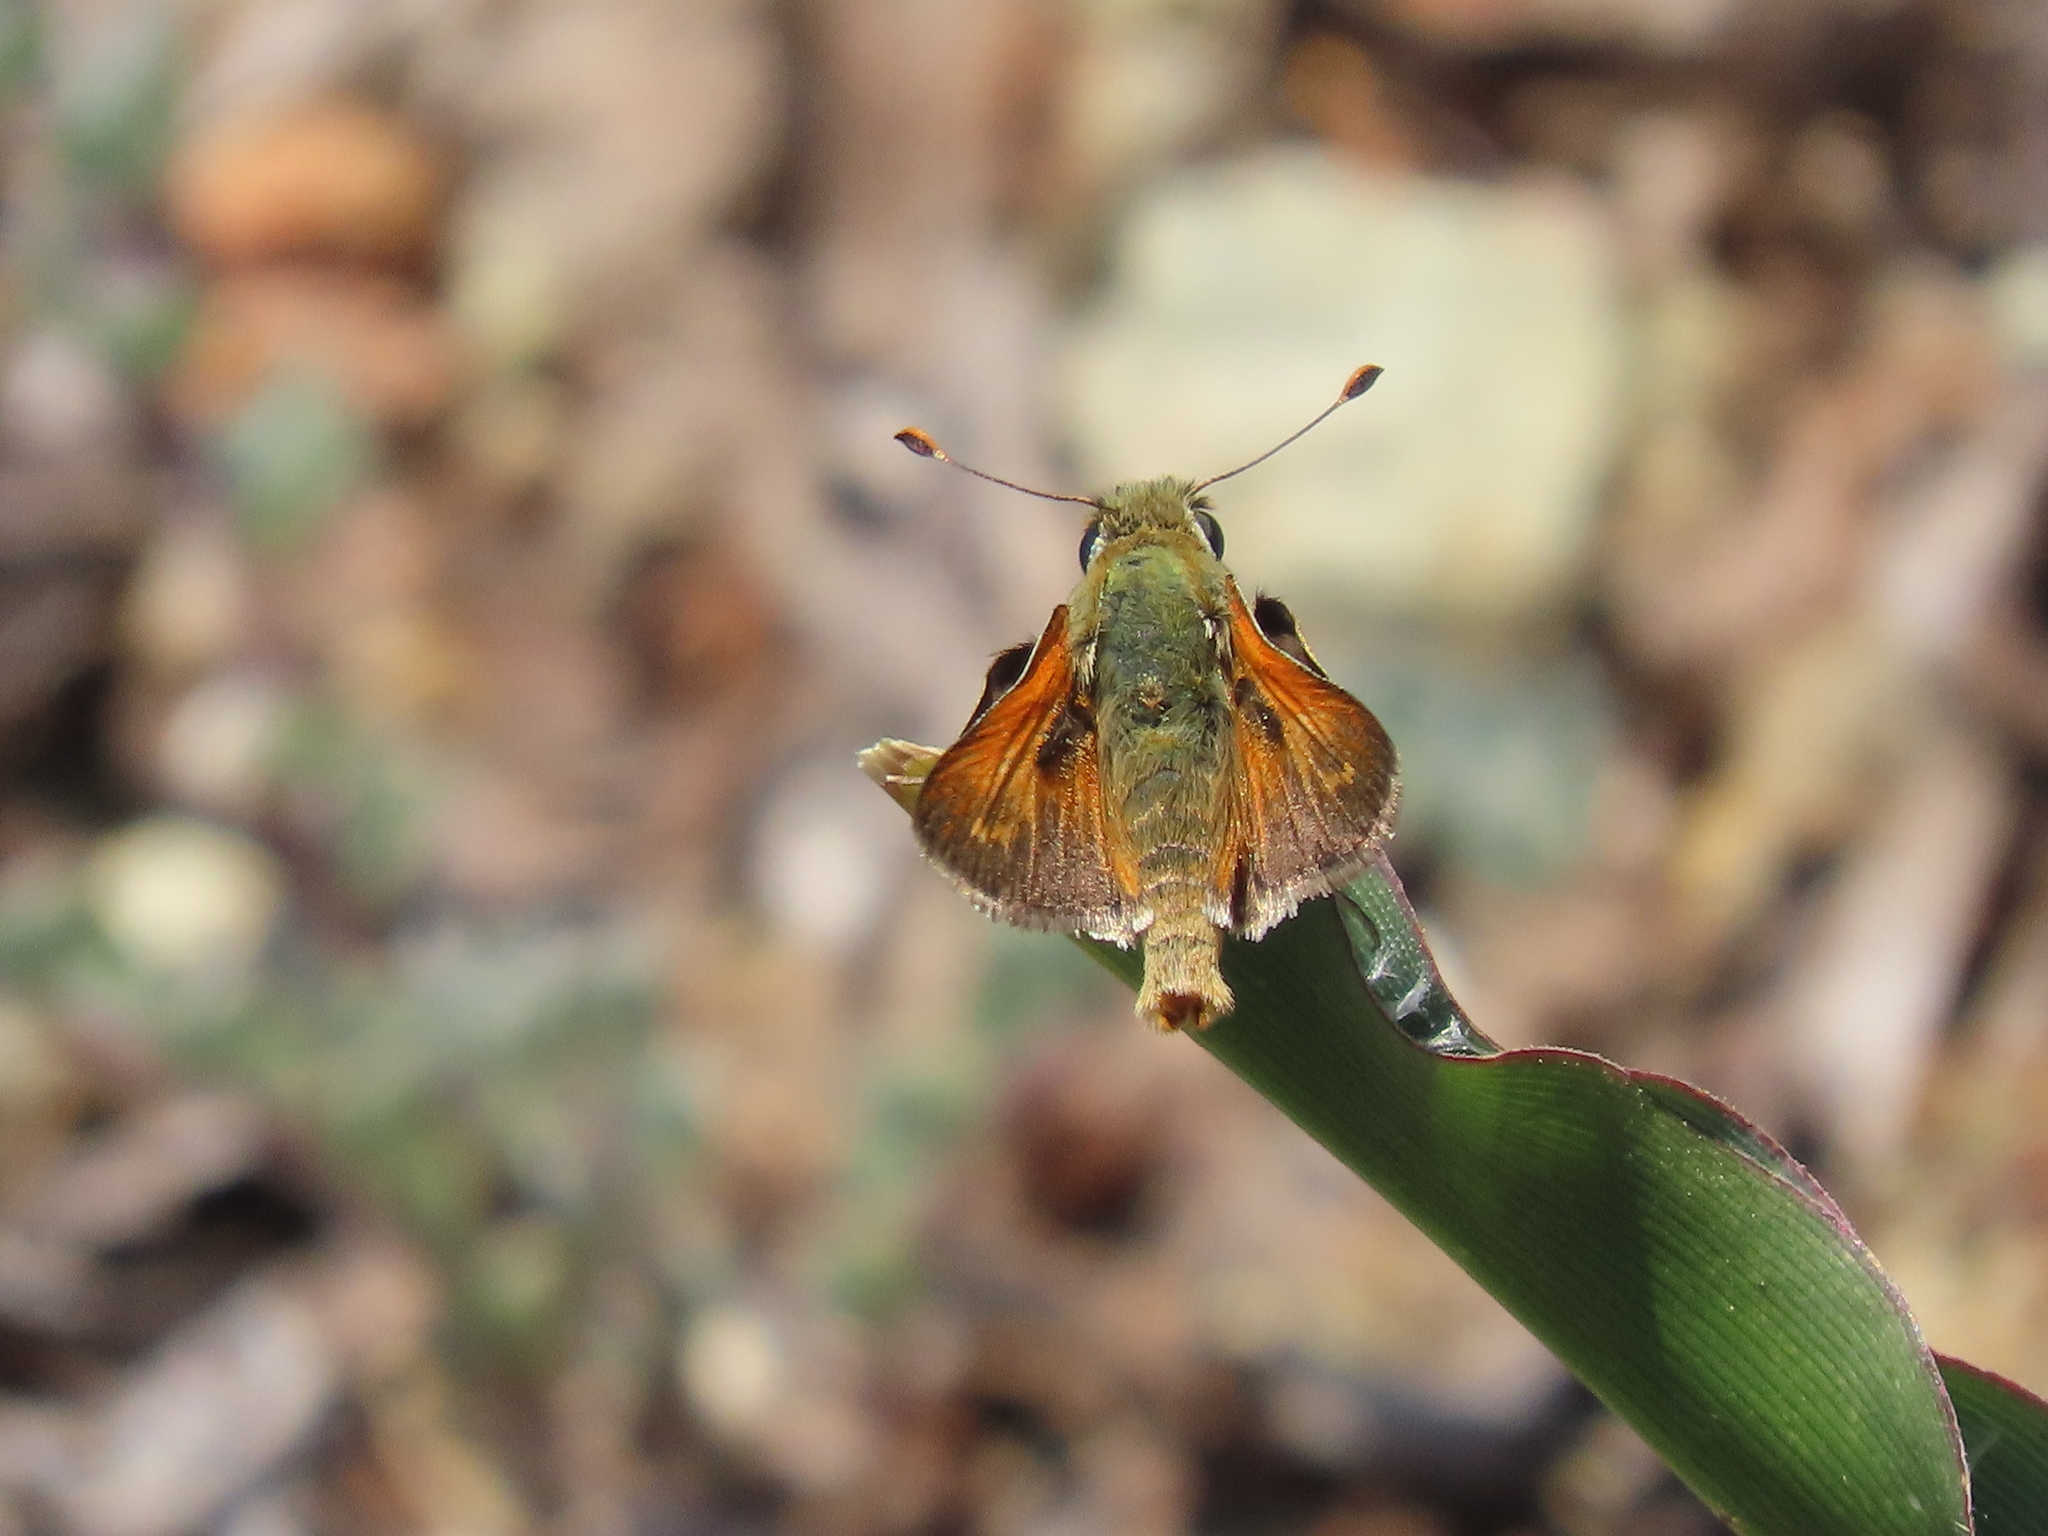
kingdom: Animalia
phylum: Arthropoda
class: Insecta
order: Lepidoptera
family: Hesperiidae
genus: Hesperia
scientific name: Hesperia columbia
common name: Columbian skipper
